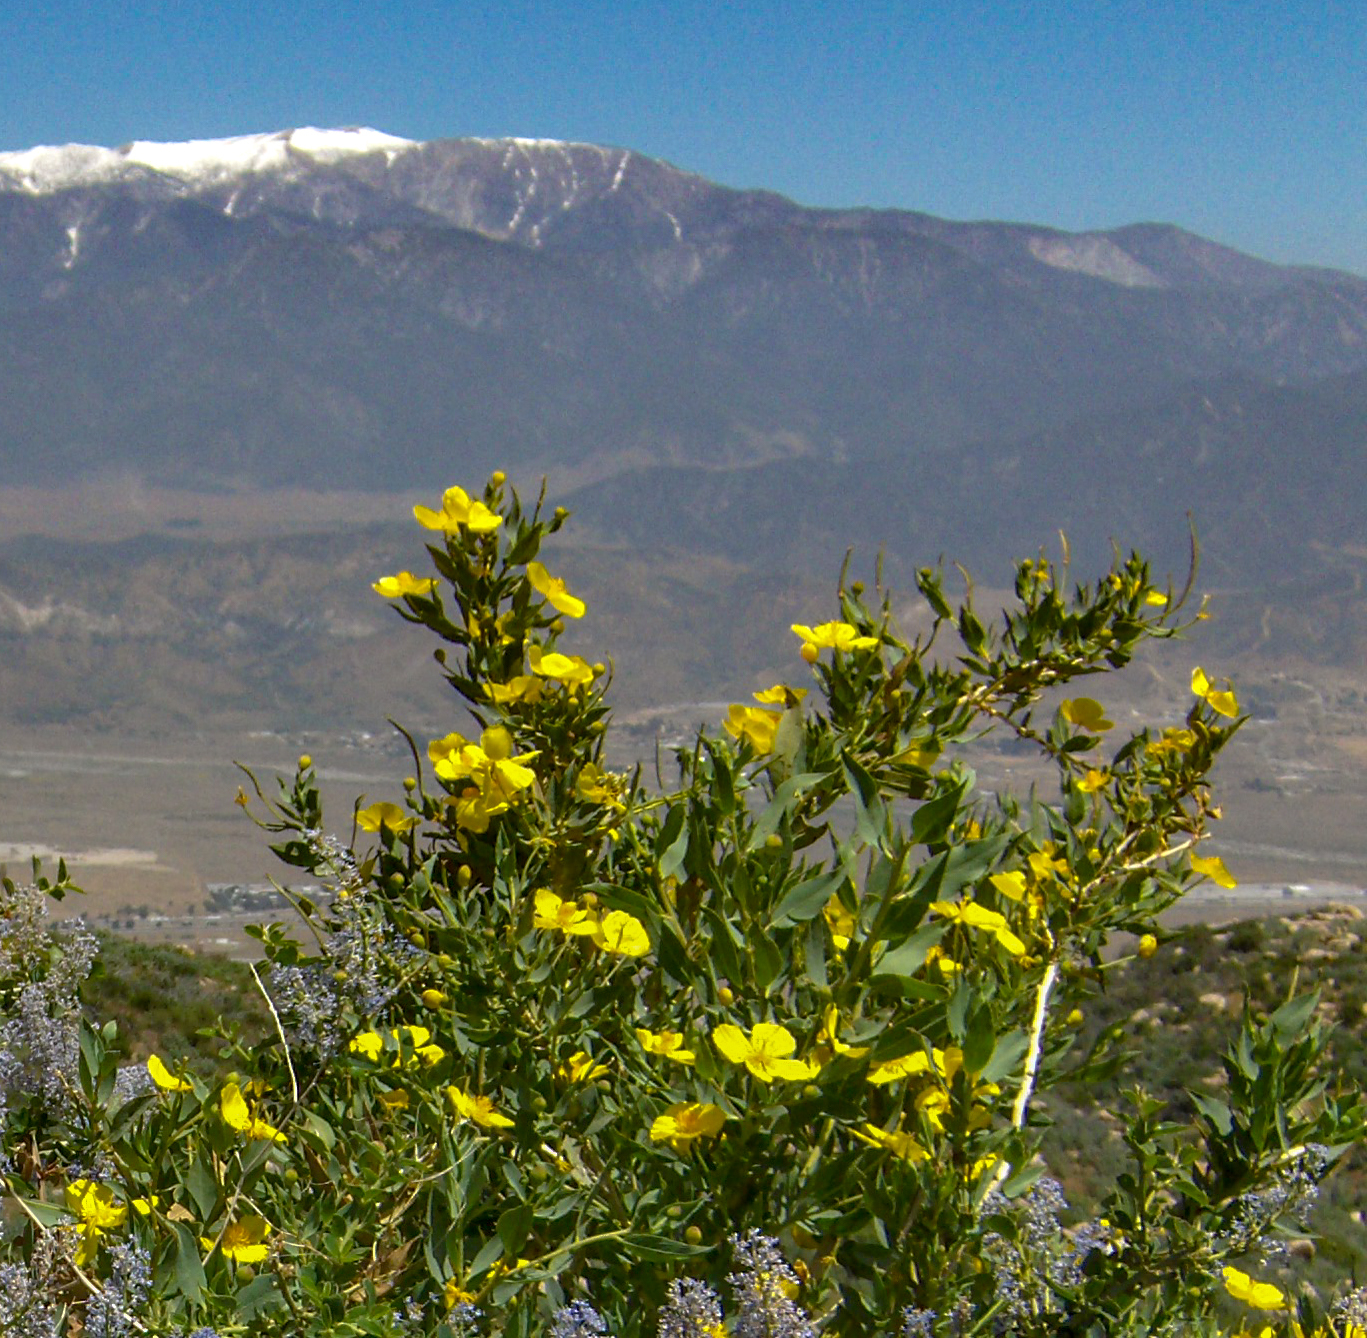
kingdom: Plantae
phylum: Tracheophyta
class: Magnoliopsida
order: Ranunculales
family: Papaveraceae
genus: Dendromecon
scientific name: Dendromecon rigida
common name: Tree poppy
